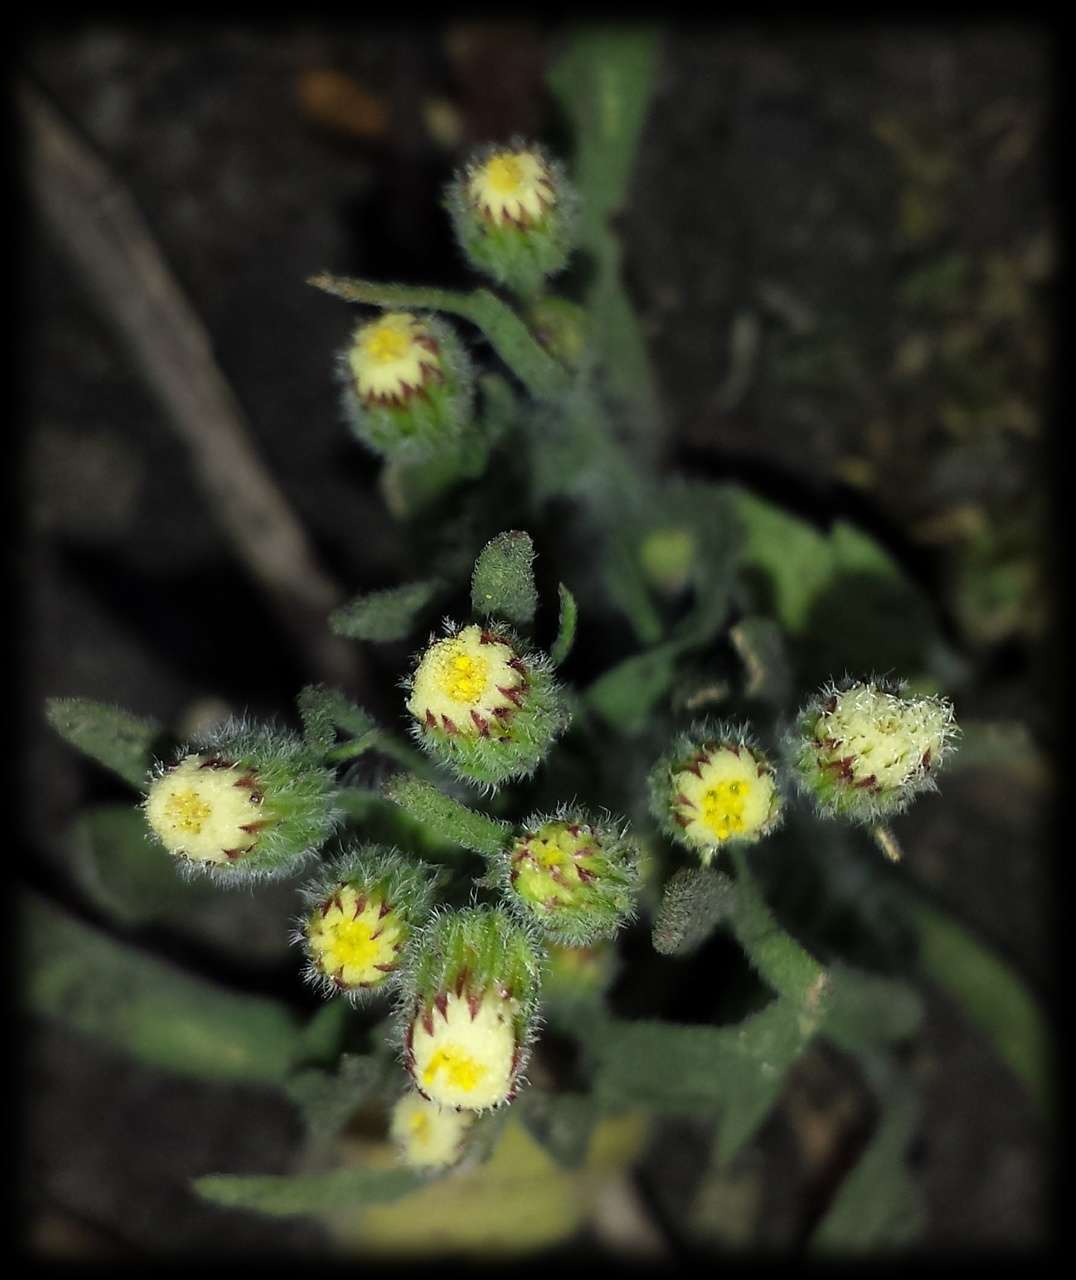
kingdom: Plantae
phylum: Tracheophyta
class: Magnoliopsida
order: Asterales
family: Asteraceae
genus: Erigeron
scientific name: Erigeron bonariensis
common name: Argentine fleabane
